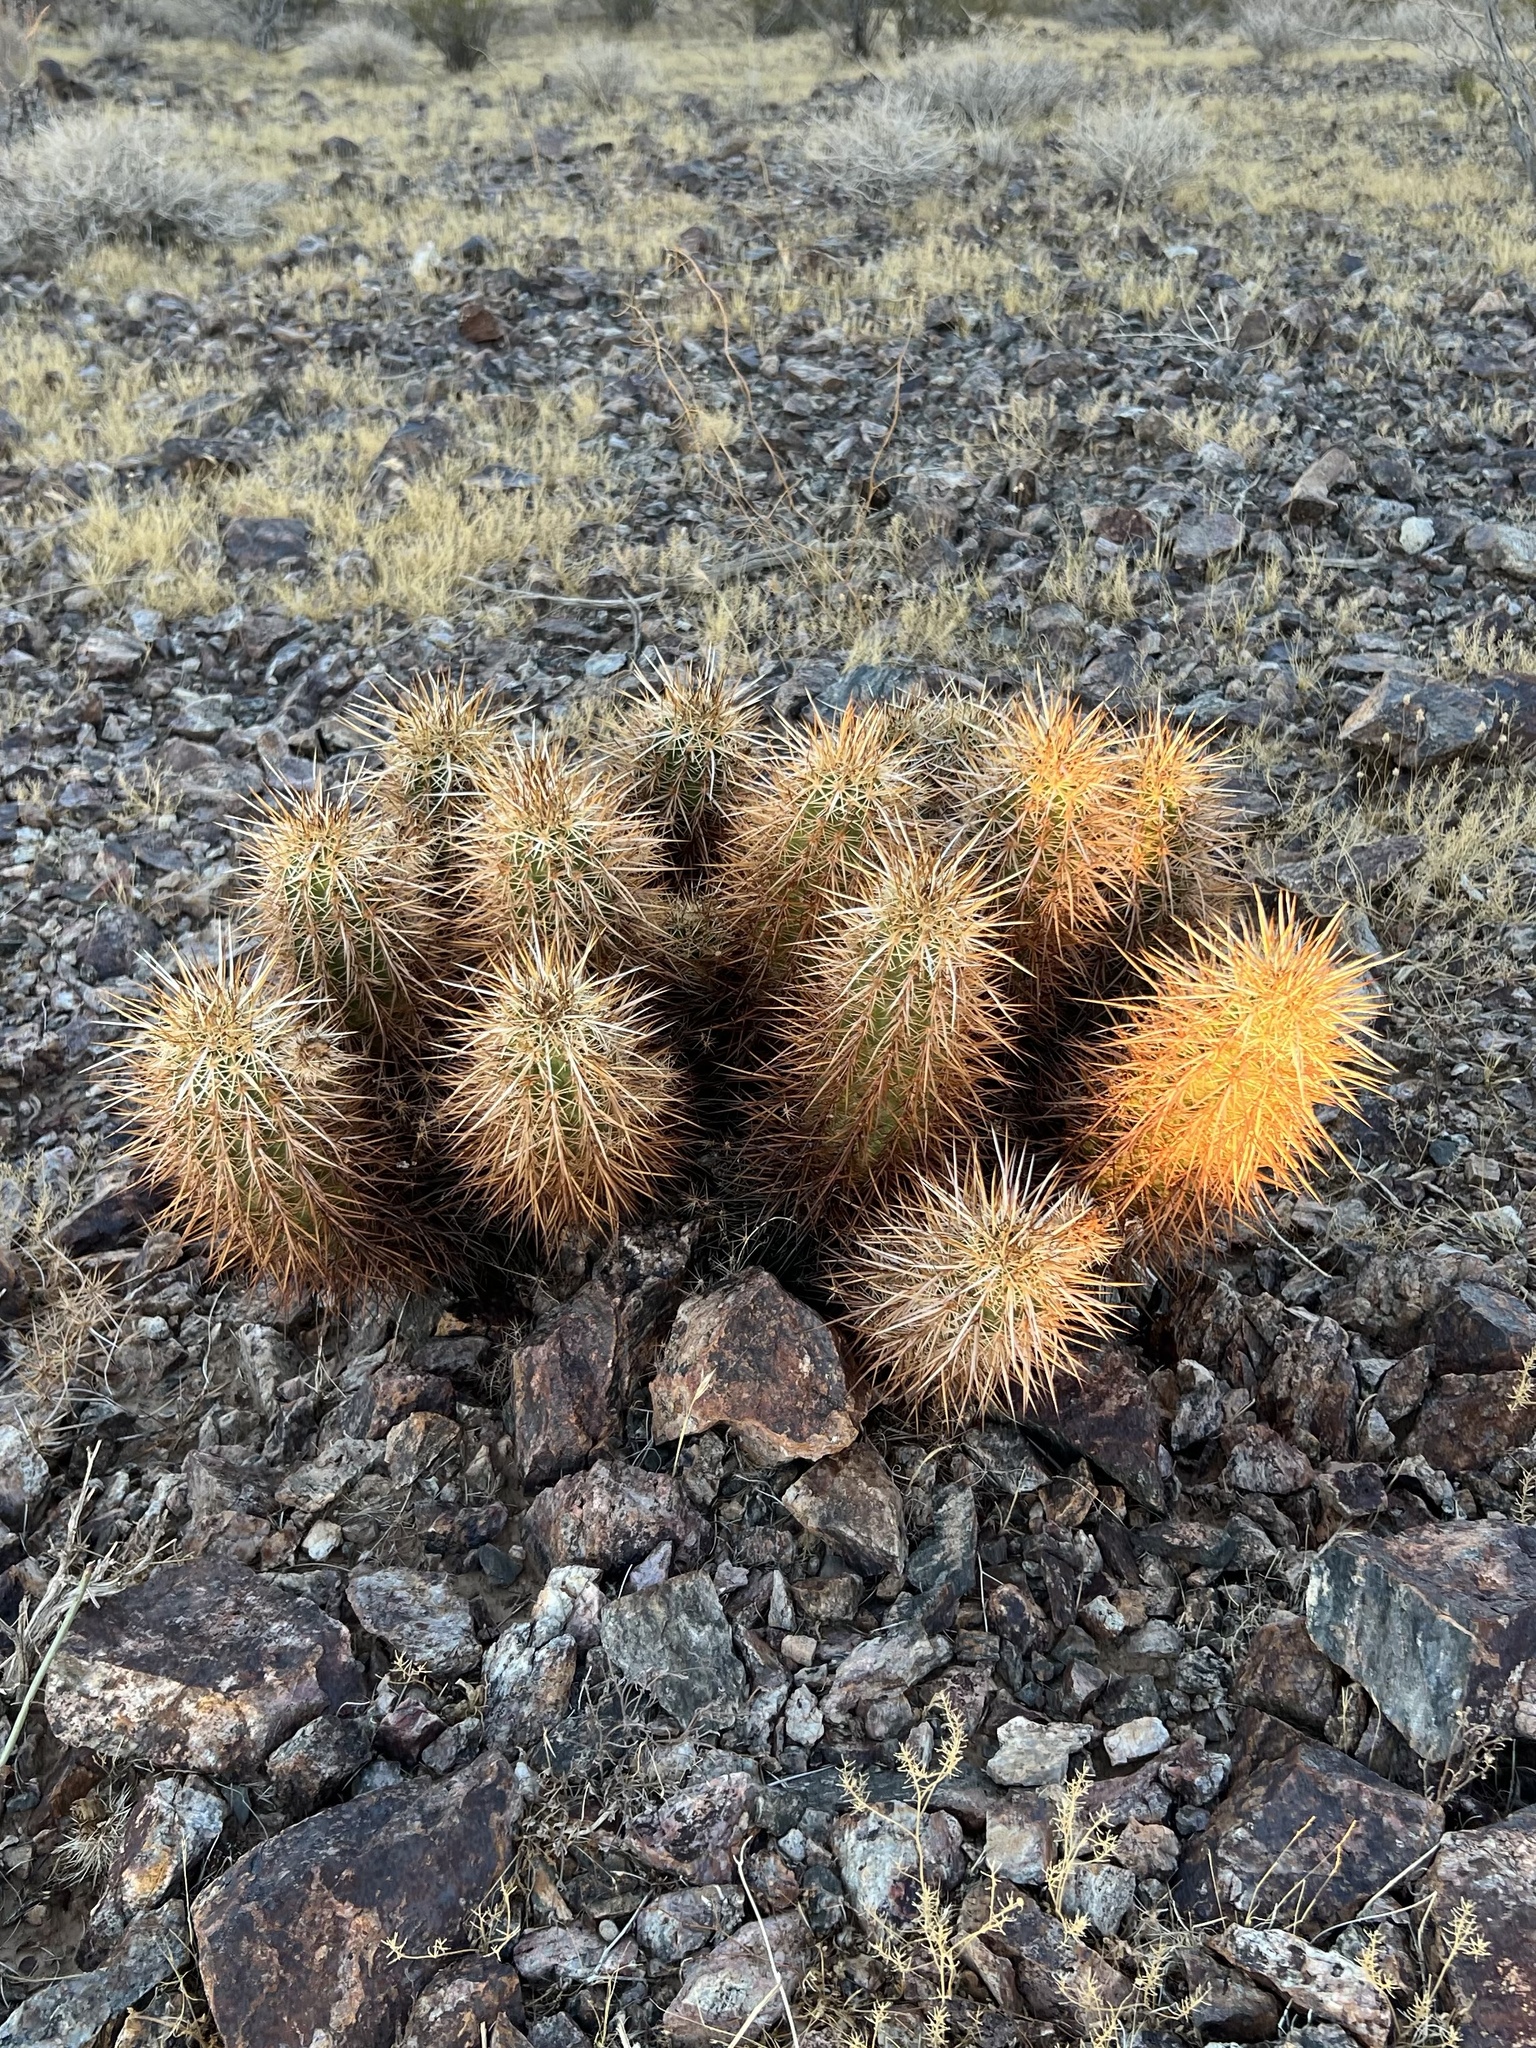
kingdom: Plantae
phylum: Tracheophyta
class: Magnoliopsida
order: Caryophyllales
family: Cactaceae
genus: Echinocereus
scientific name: Echinocereus engelmannii
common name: Engelmann's hedgehog cactus
